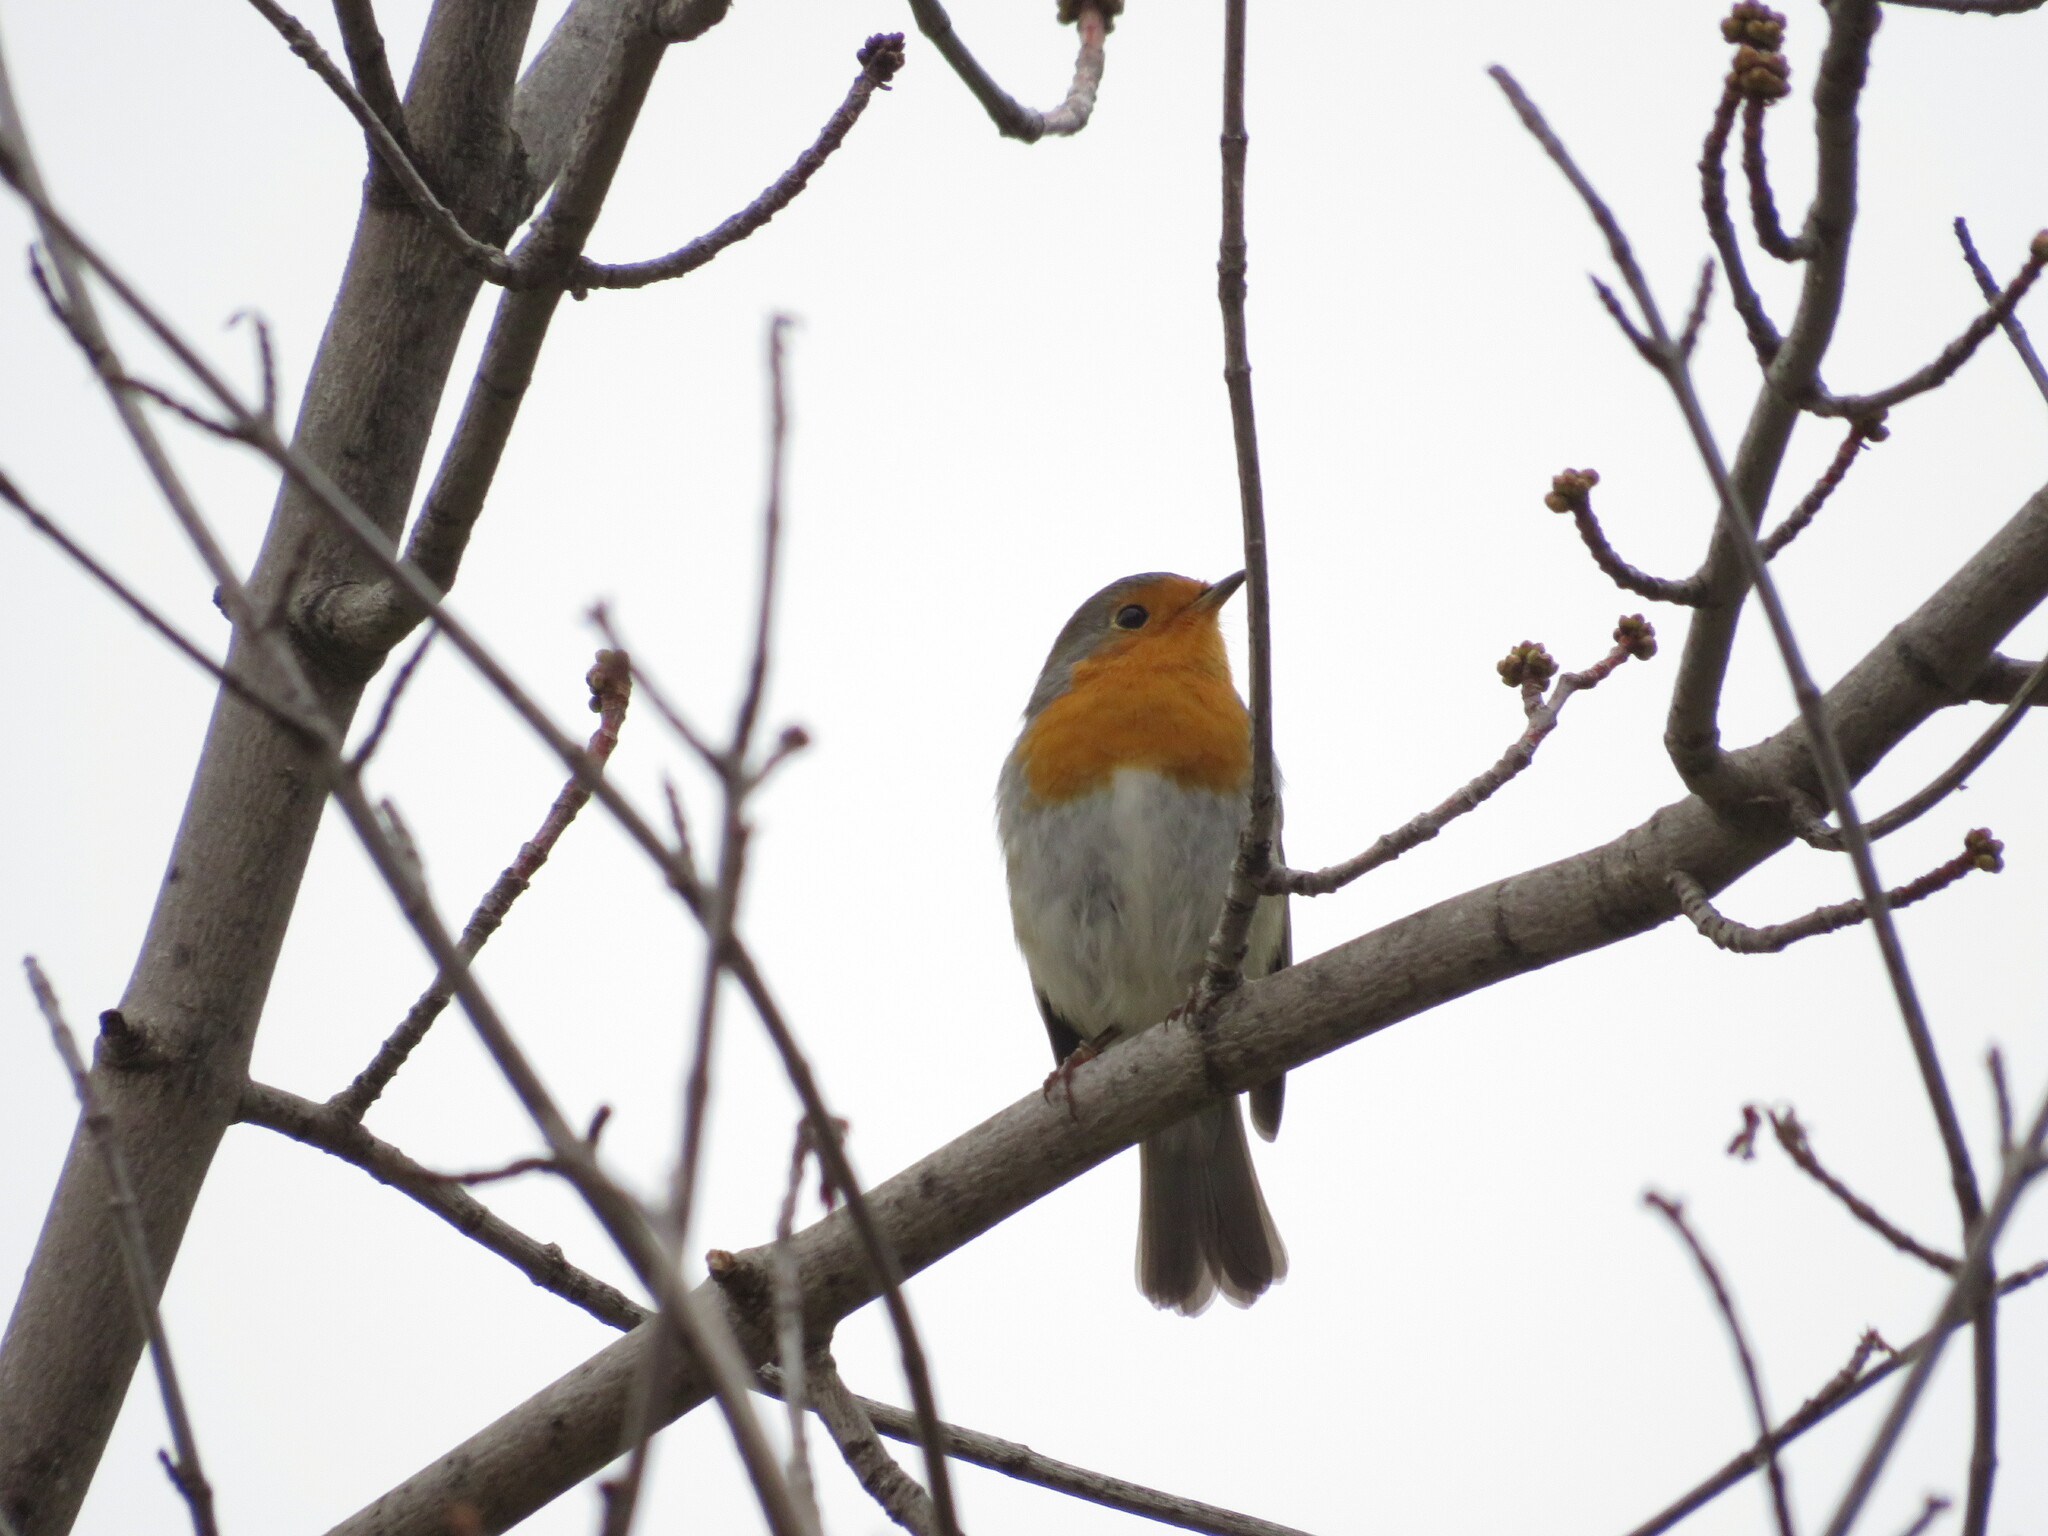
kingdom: Animalia
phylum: Chordata
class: Aves
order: Passeriformes
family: Muscicapidae
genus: Erithacus
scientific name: Erithacus rubecula
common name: European robin
